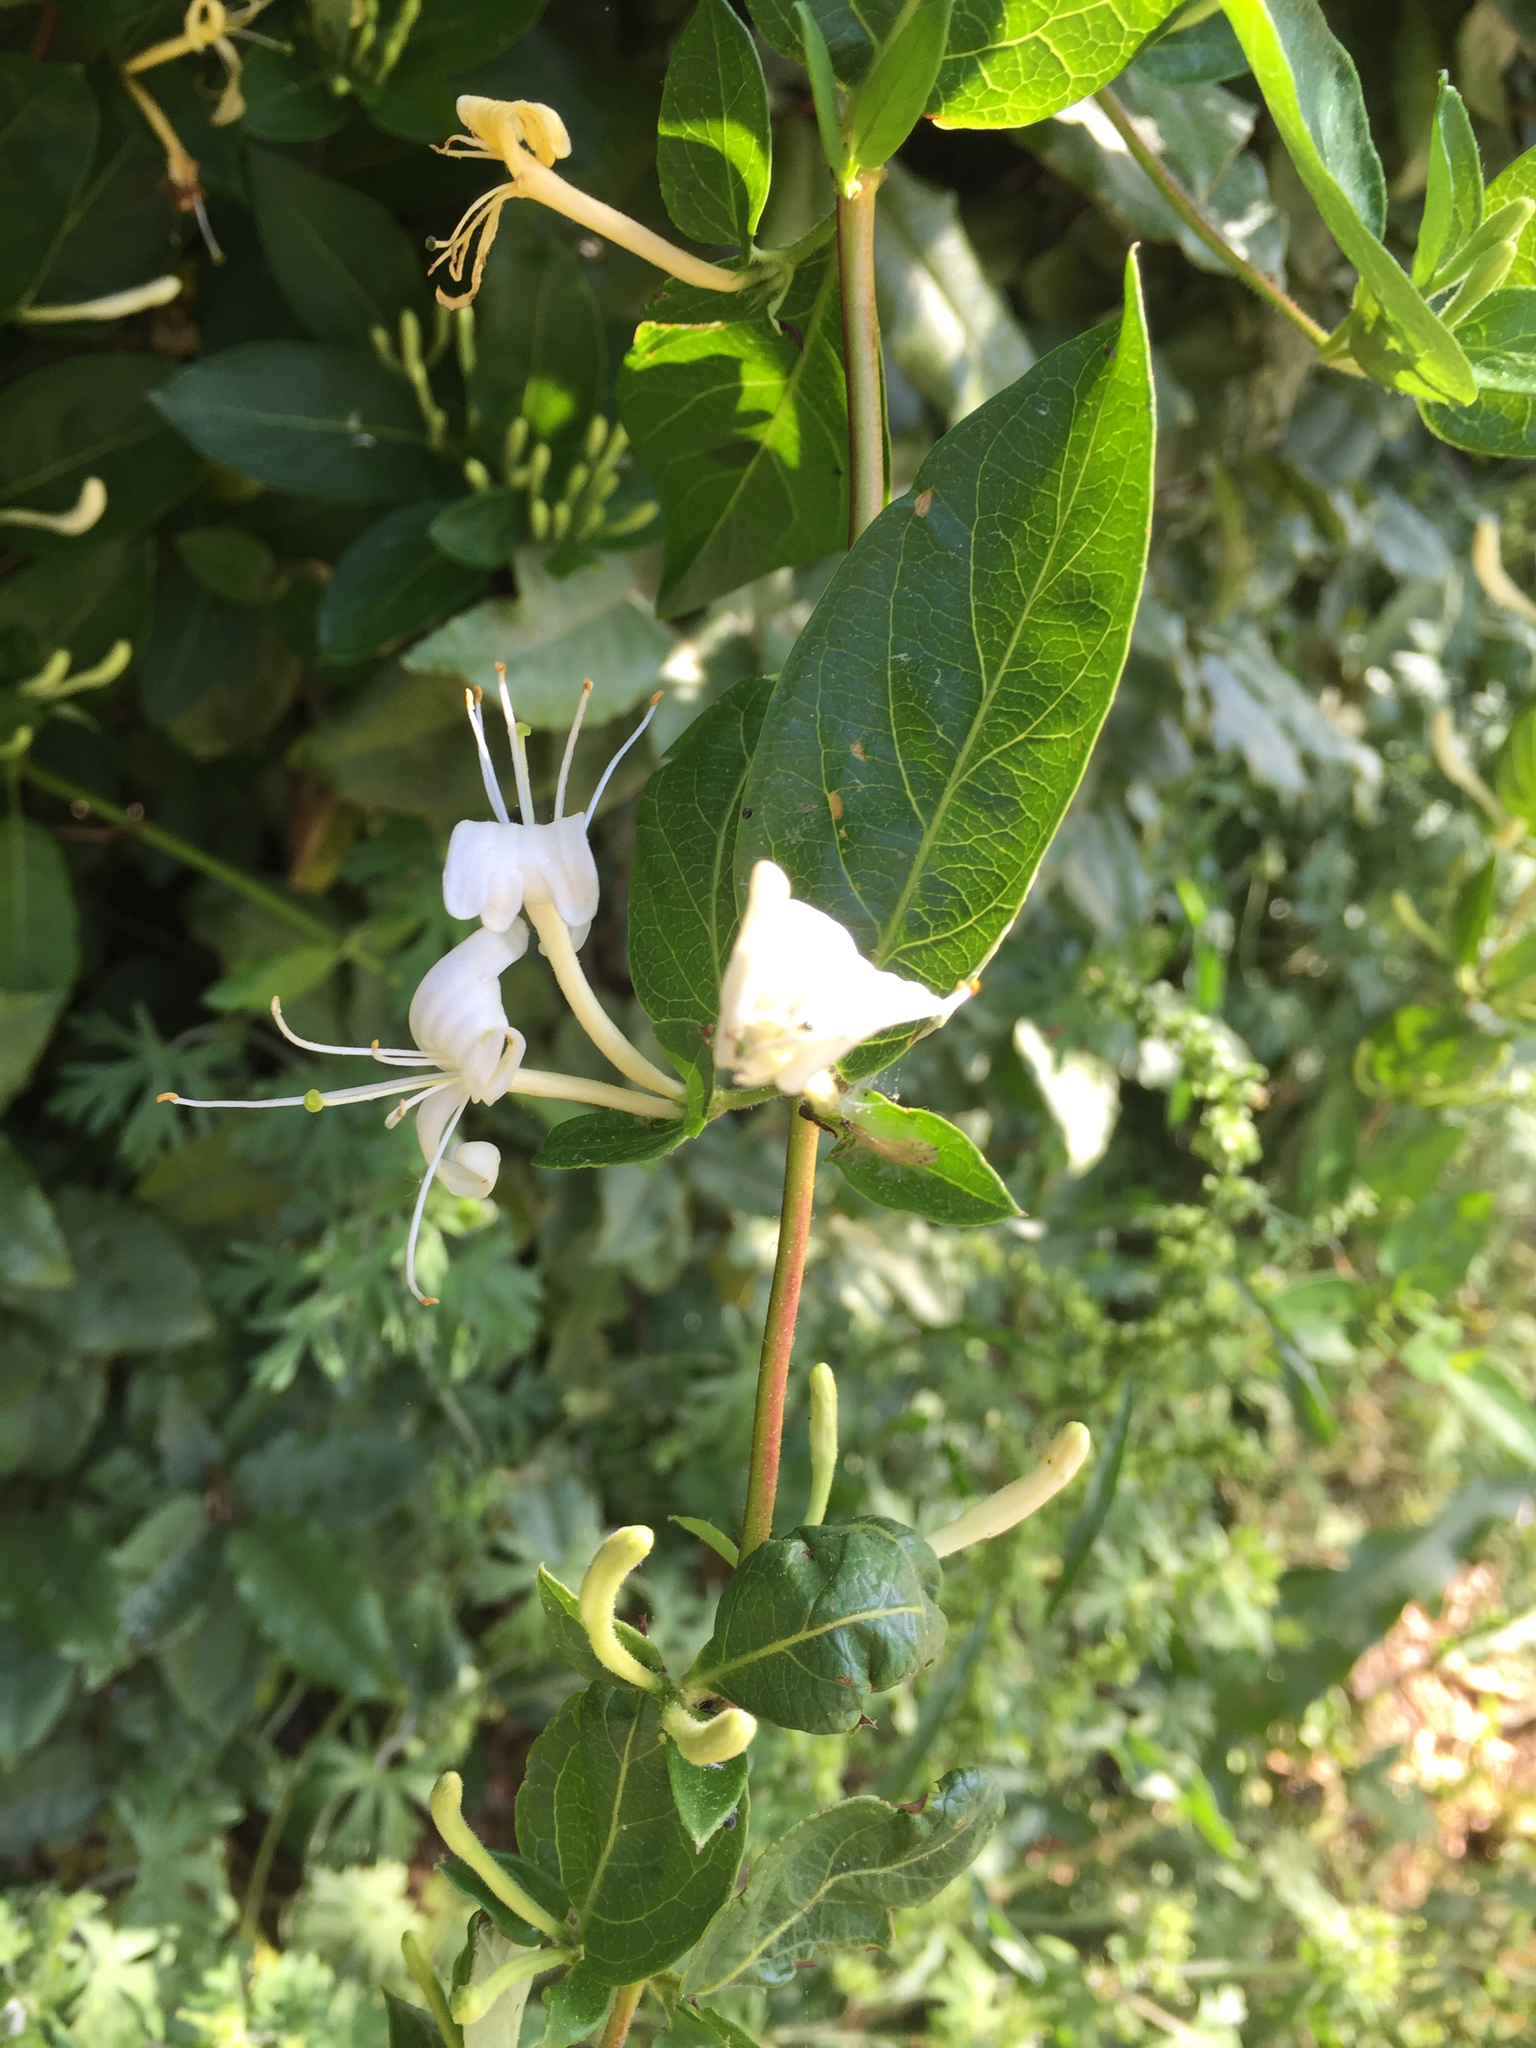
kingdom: Plantae
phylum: Tracheophyta
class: Magnoliopsida
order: Dipsacales
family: Caprifoliaceae
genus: Lonicera
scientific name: Lonicera japonica
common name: Japanese honeysuckle
